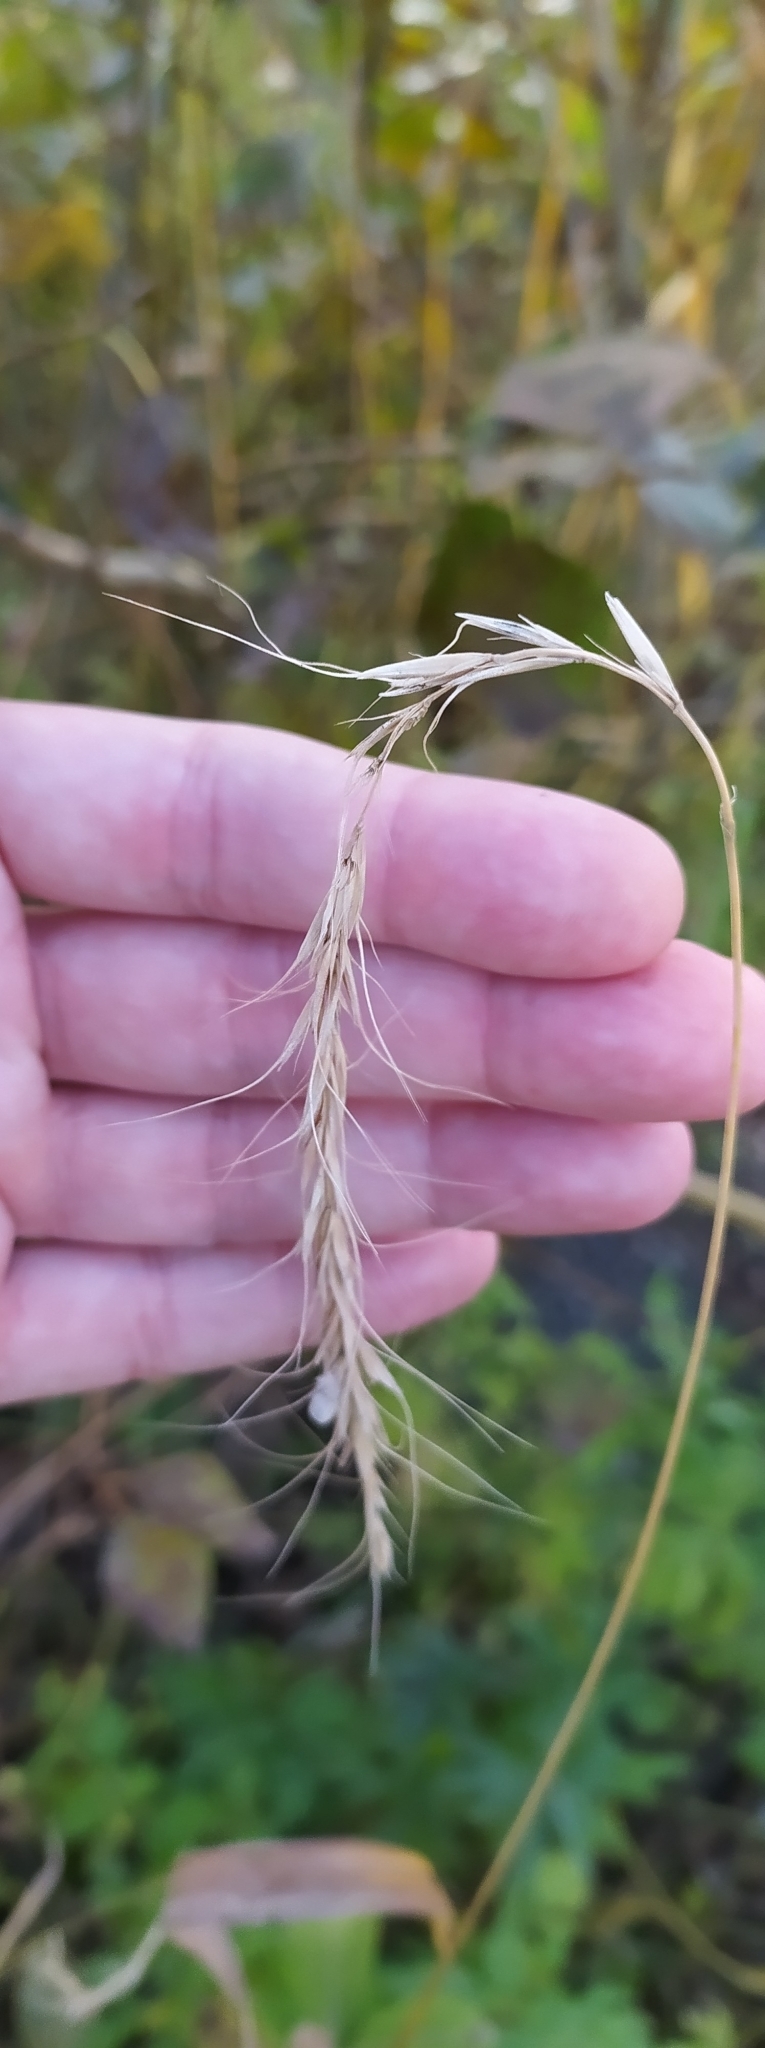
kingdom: Plantae
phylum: Tracheophyta
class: Liliopsida
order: Poales
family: Poaceae
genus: Elymus
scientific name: Elymus sibiricus
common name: Siberian wildrye
